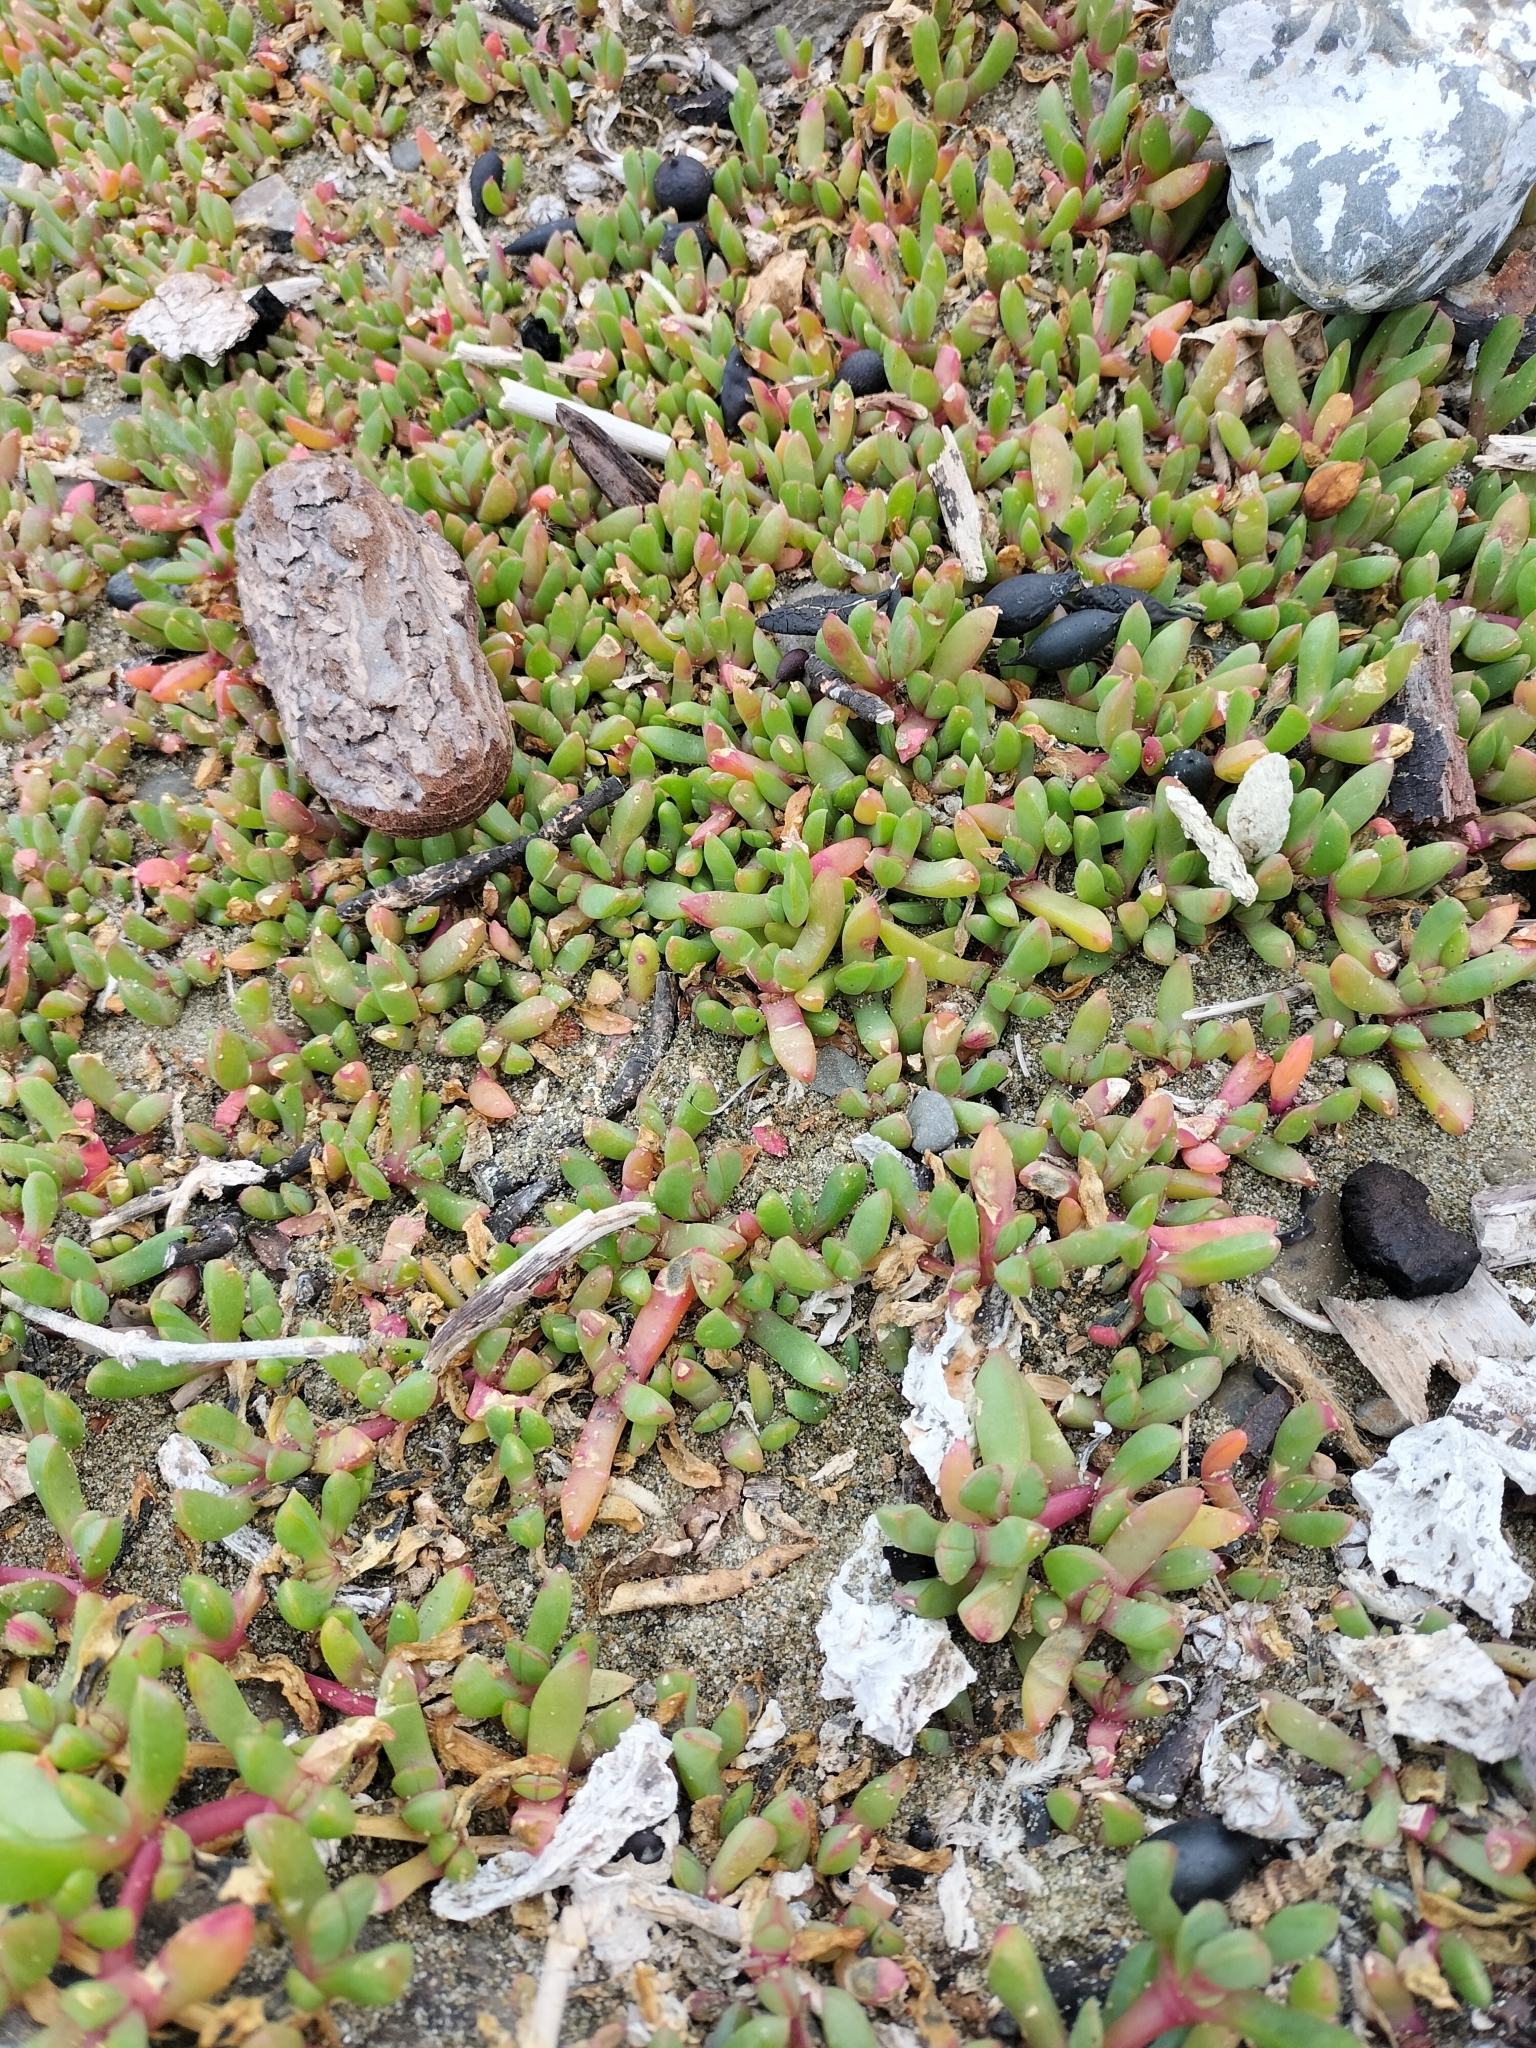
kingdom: Plantae
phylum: Tracheophyta
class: Magnoliopsida
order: Caryophyllales
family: Aizoaceae
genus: Disphyma
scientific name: Disphyma australe
